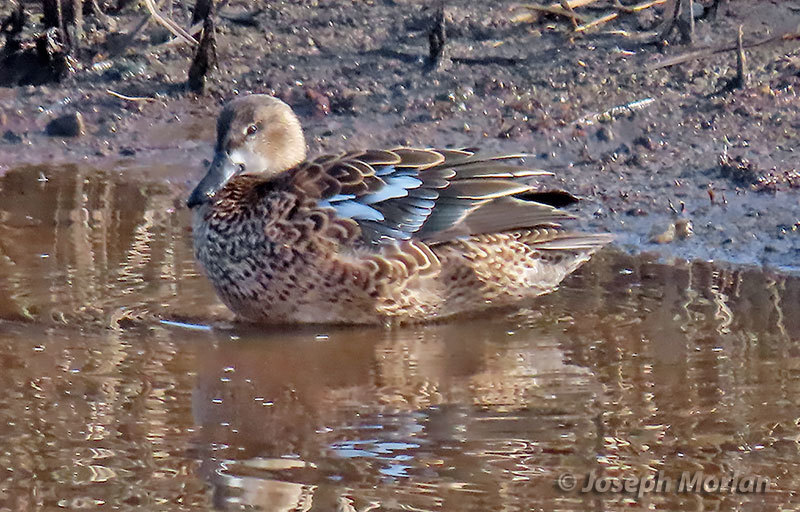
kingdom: Animalia
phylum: Chordata
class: Aves
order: Anseriformes
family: Anatidae
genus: Spatula
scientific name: Spatula discors
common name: Blue-winged teal
